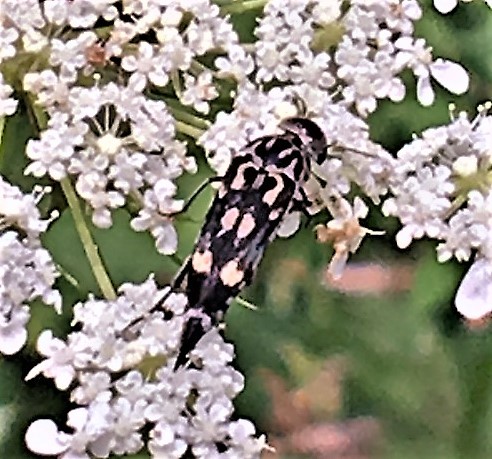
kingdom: Animalia
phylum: Arthropoda
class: Insecta
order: Coleoptera
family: Mordellidae
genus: Hoshihananomia
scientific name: Hoshihananomia octopunctata
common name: Eight-spotted tumbling flower beetle
